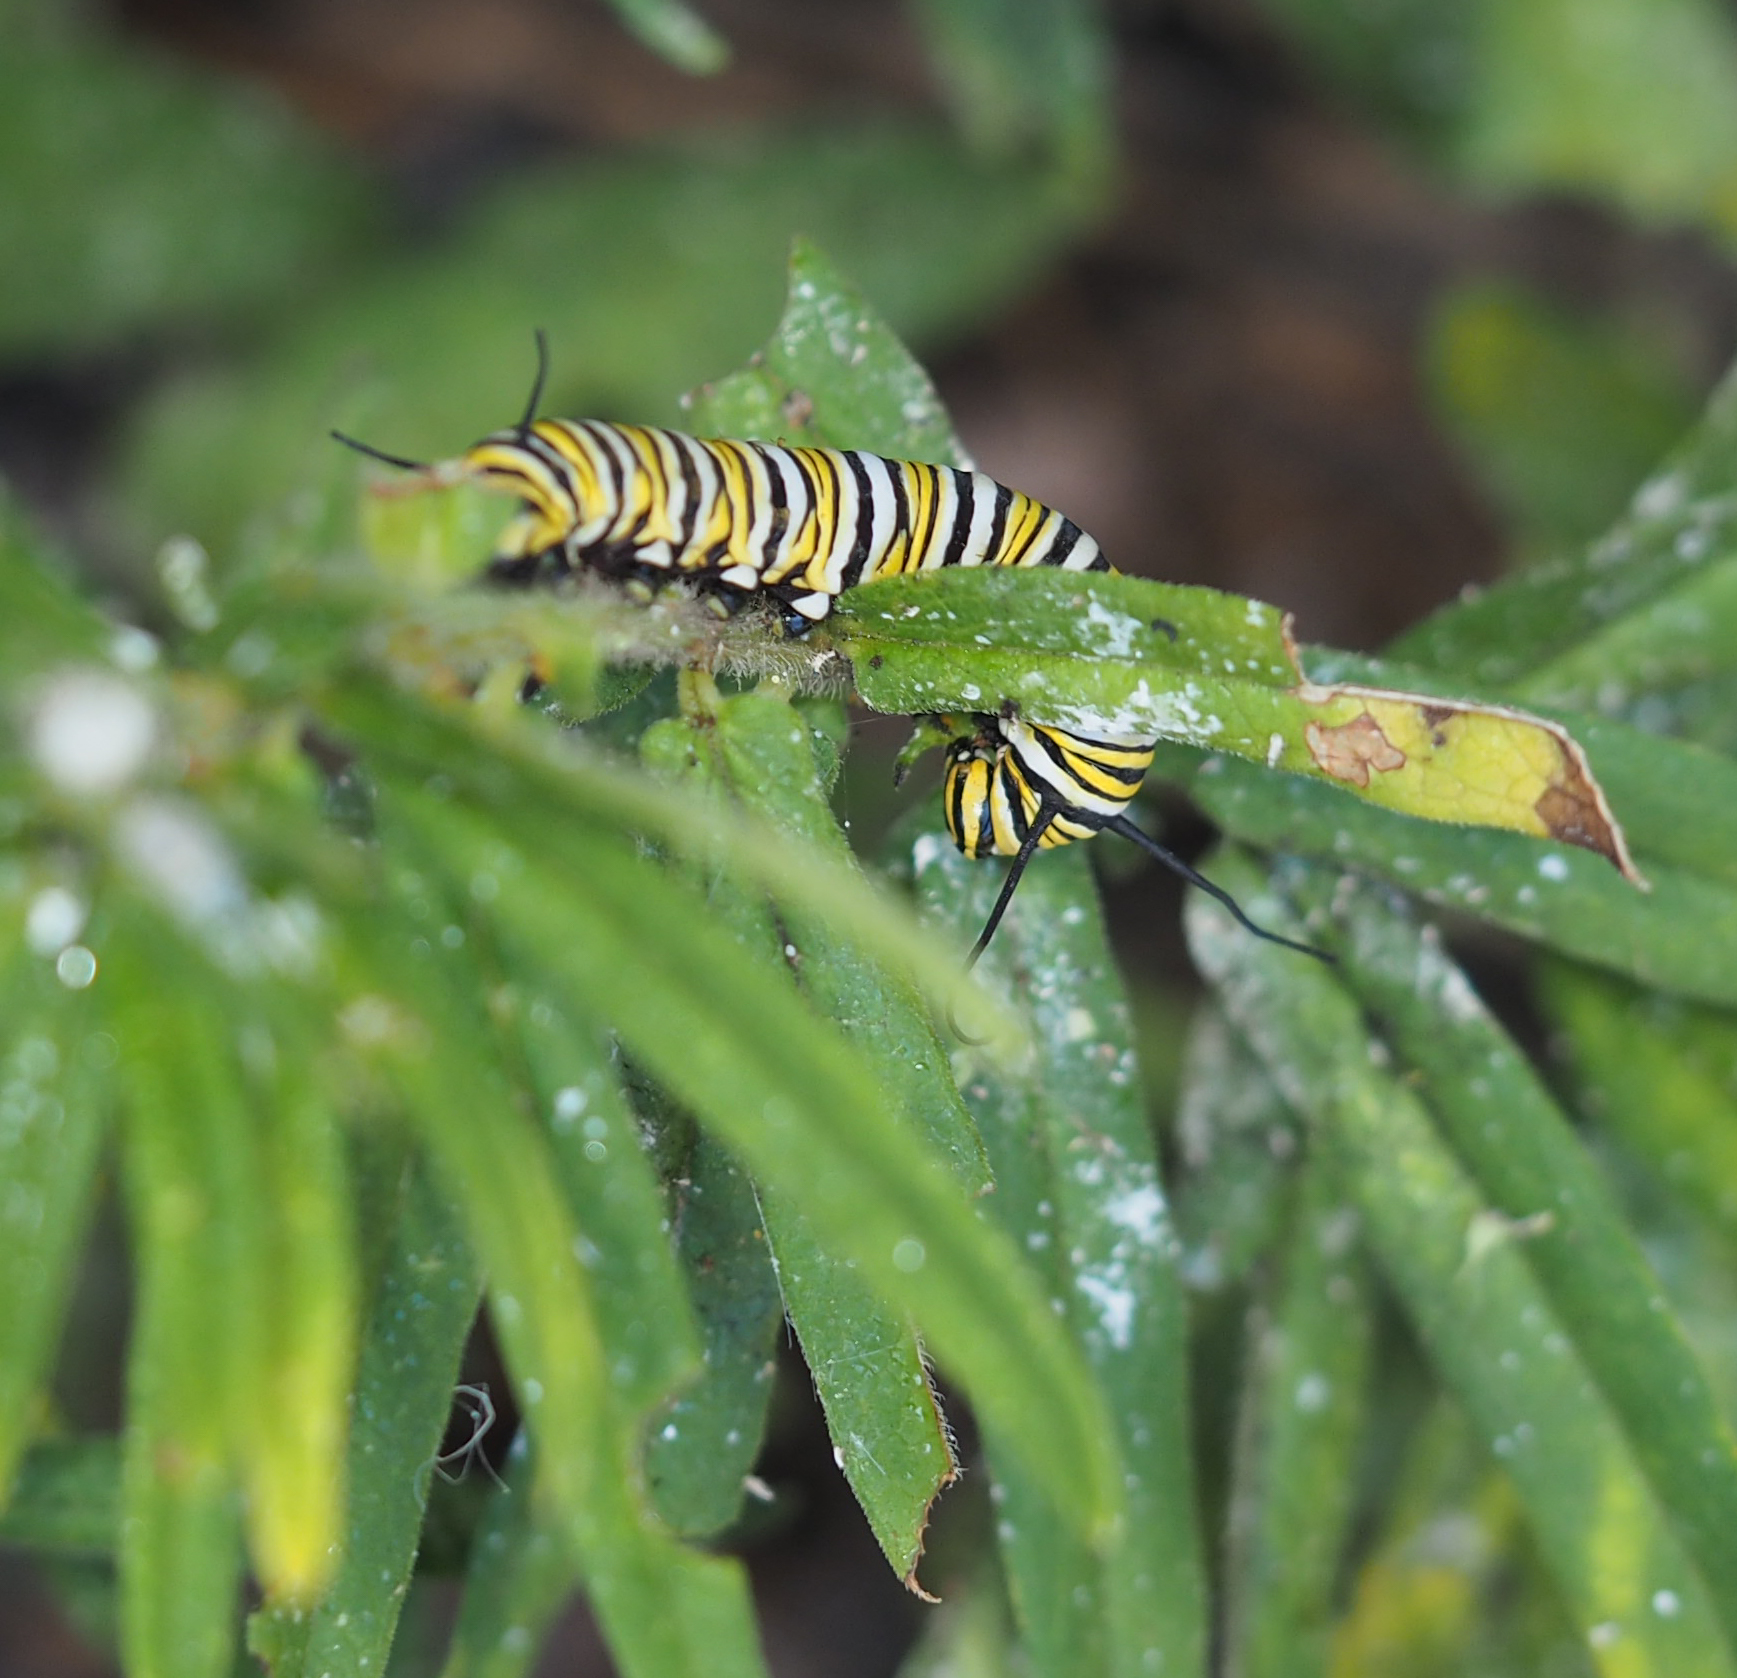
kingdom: Animalia
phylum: Arthropoda
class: Insecta
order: Lepidoptera
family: Nymphalidae
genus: Danaus
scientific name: Danaus plexippus
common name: Monarch
